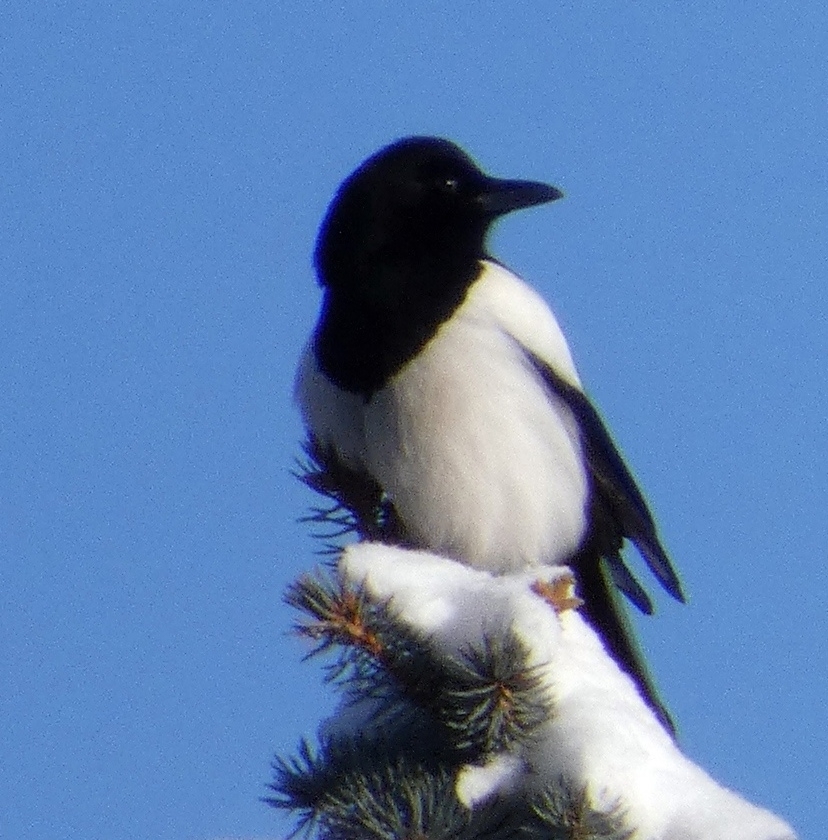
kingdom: Animalia
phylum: Chordata
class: Aves
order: Passeriformes
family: Corvidae
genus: Pica
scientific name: Pica pica
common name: Eurasian magpie
